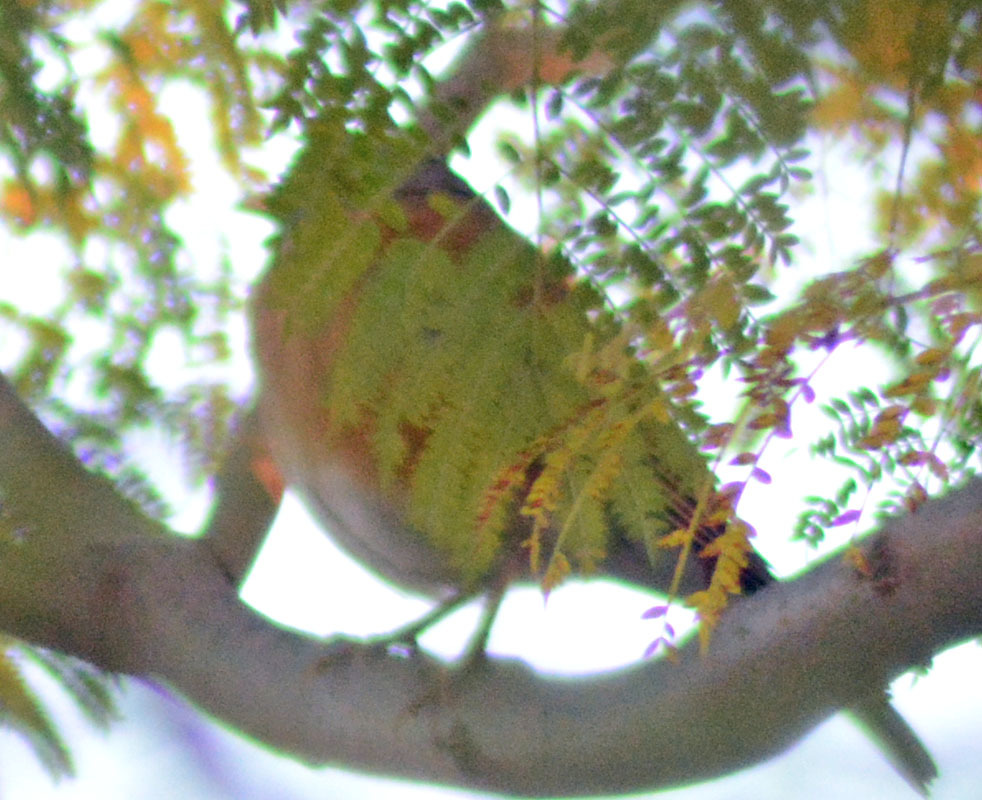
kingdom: Animalia
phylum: Chordata
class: Aves
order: Passeriformes
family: Turdidae
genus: Turdus
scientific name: Turdus rufopalliatus
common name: Rufous-backed robin
